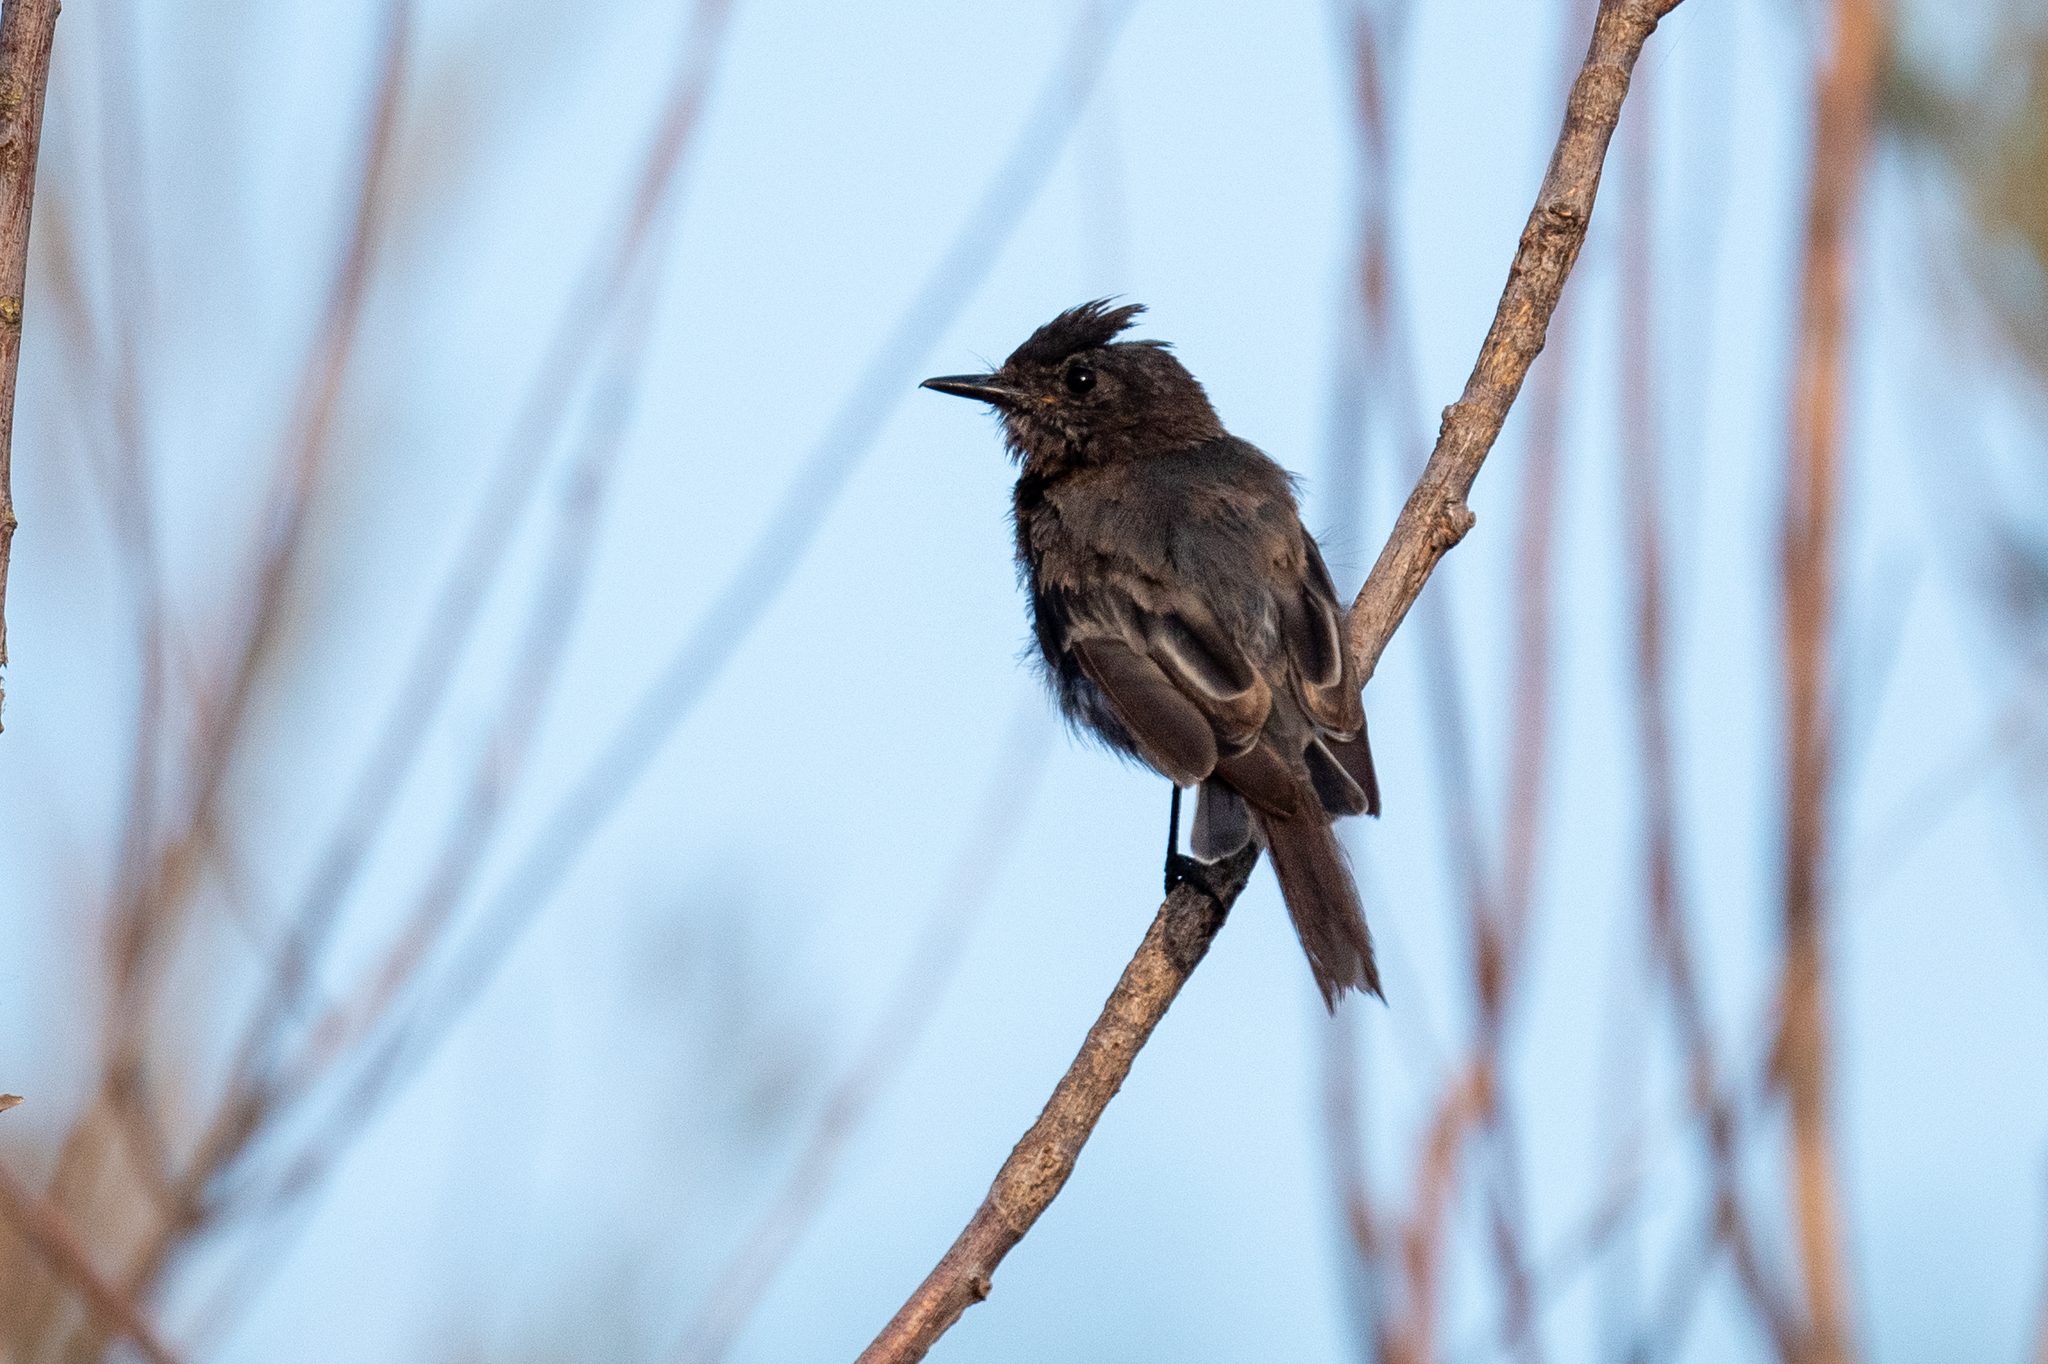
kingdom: Animalia
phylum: Chordata
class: Aves
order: Passeriformes
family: Tyrannidae
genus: Sayornis
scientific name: Sayornis nigricans
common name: Black phoebe
